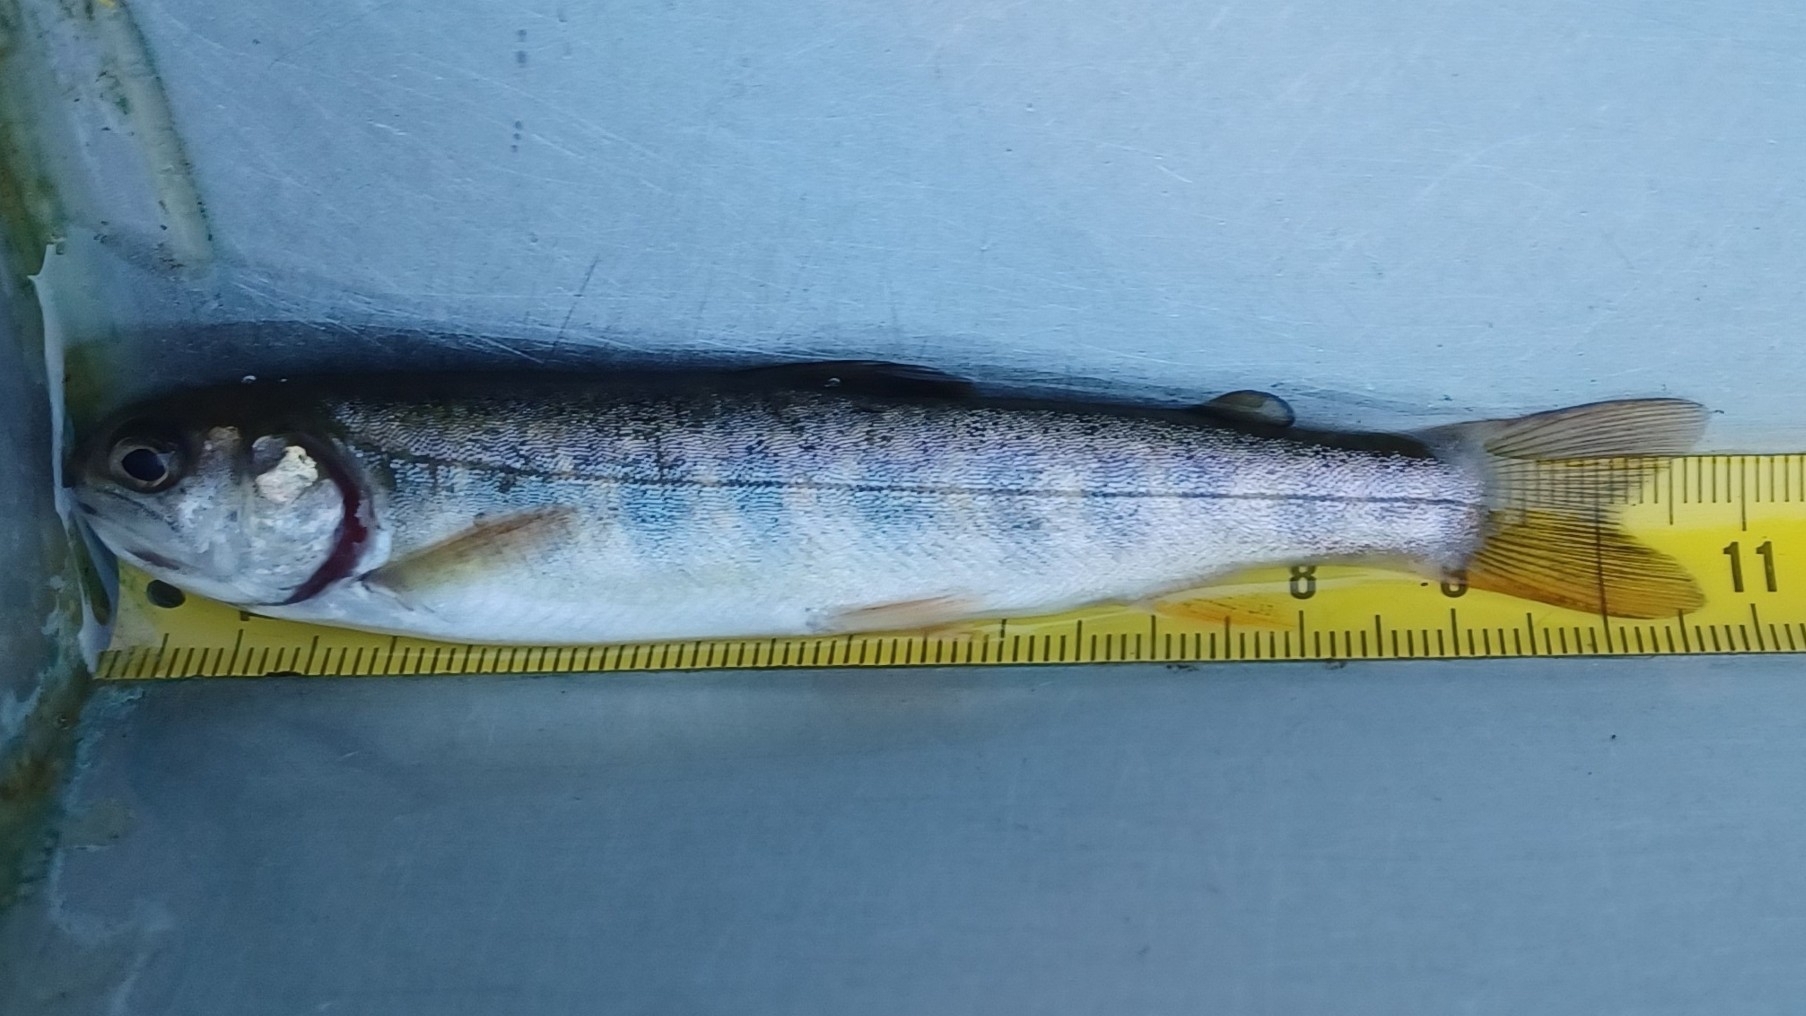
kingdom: Animalia
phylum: Chordata
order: Salmoniformes
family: Salmonidae
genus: Oncorhynchus
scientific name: Oncorhynchus mykiss
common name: Rainbow trout
